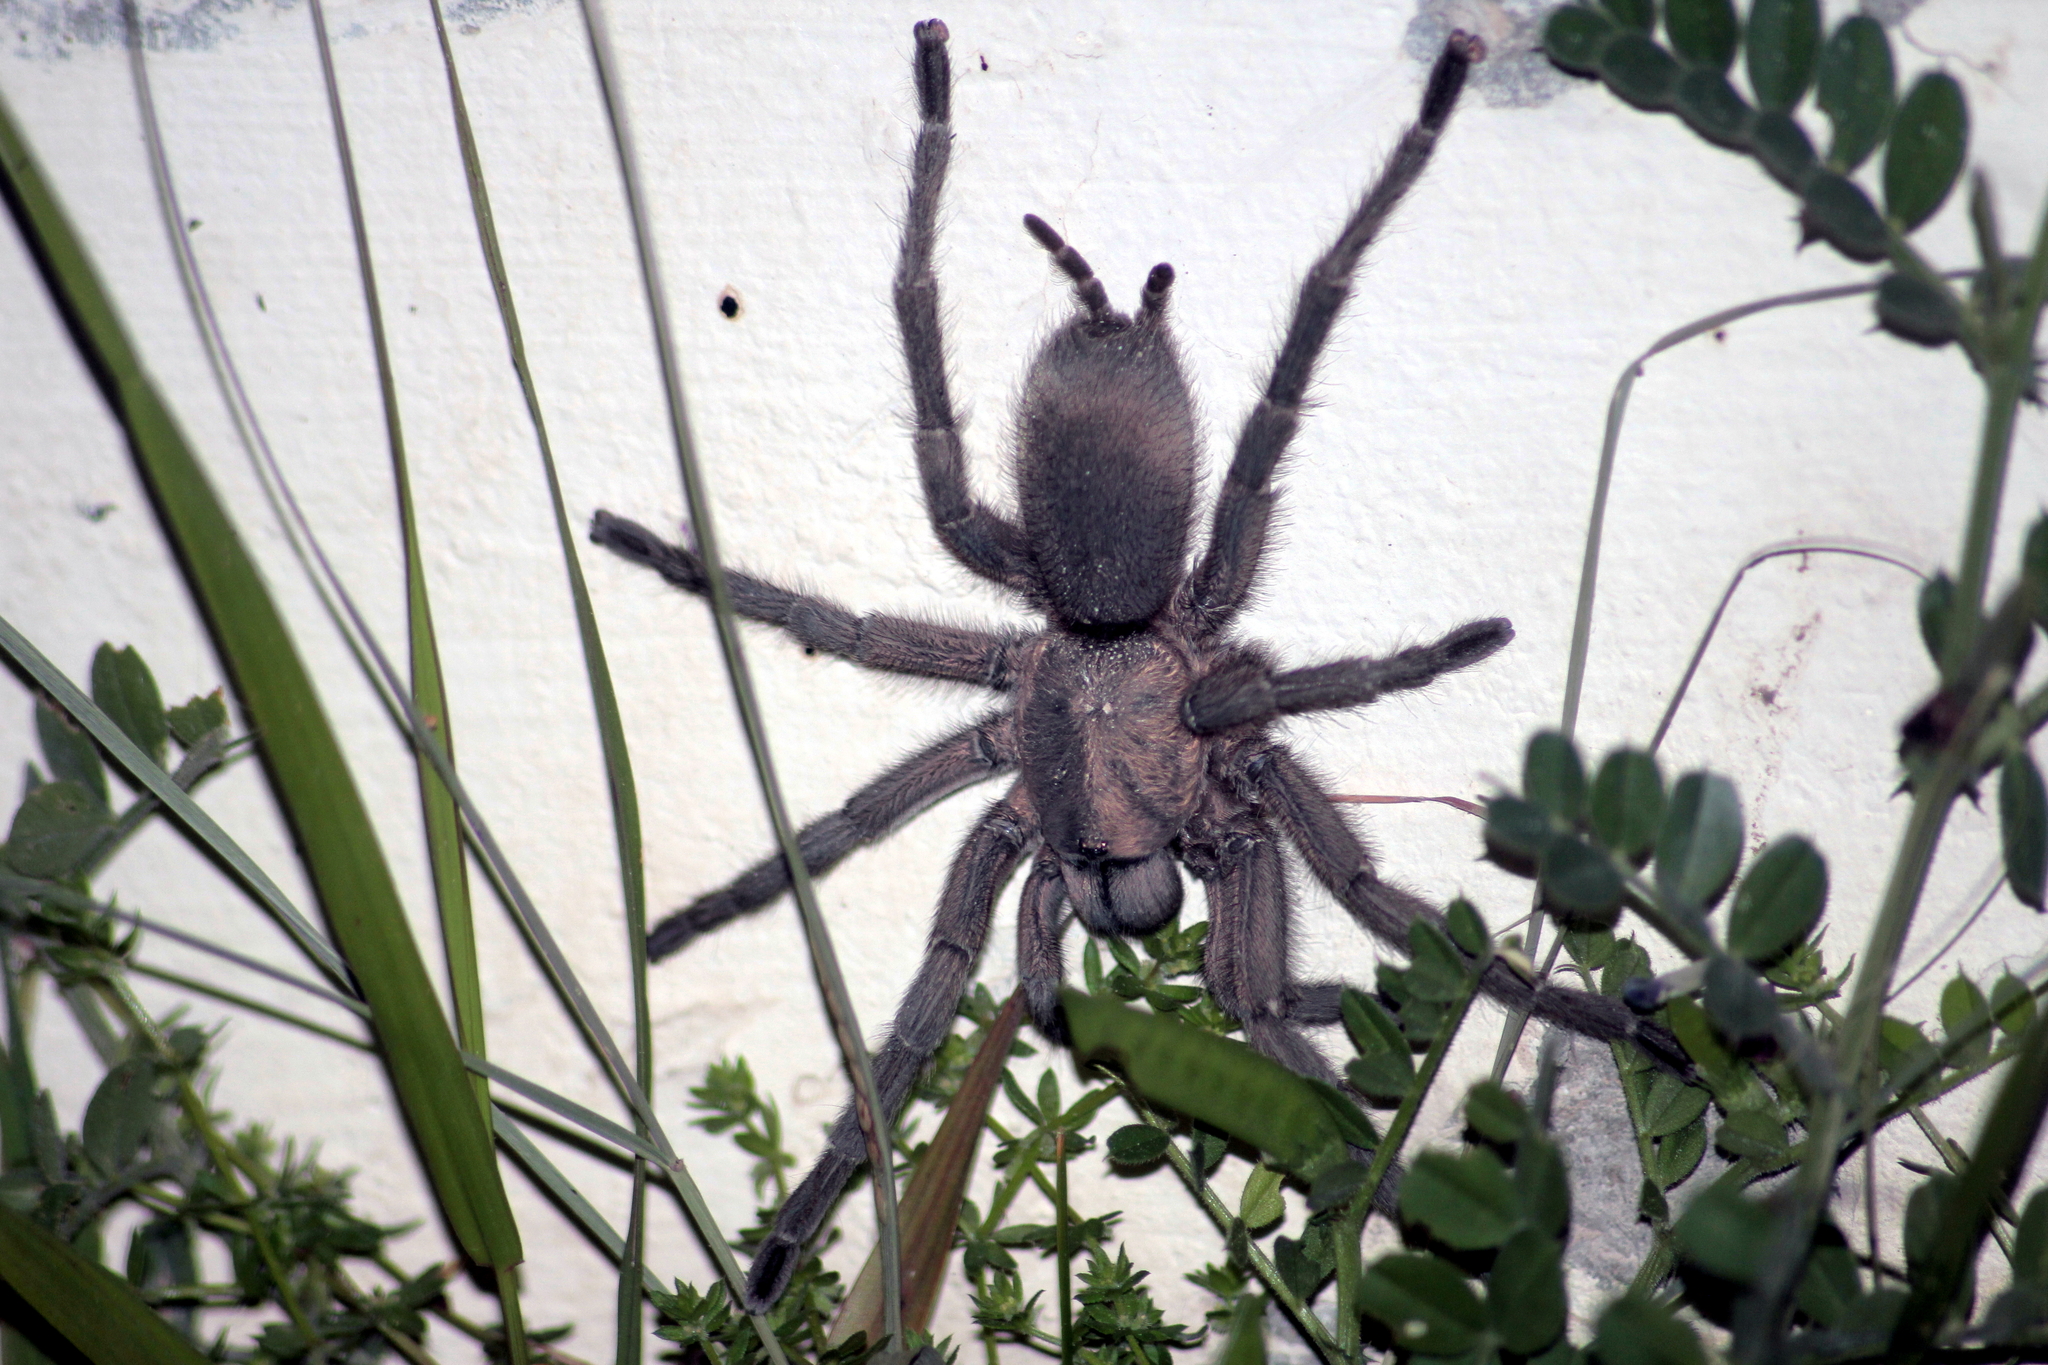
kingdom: Animalia
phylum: Arthropoda
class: Arachnida
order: Araneae
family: Theraphosidae
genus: Chaetopelma
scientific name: Chaetopelma olivaceum
